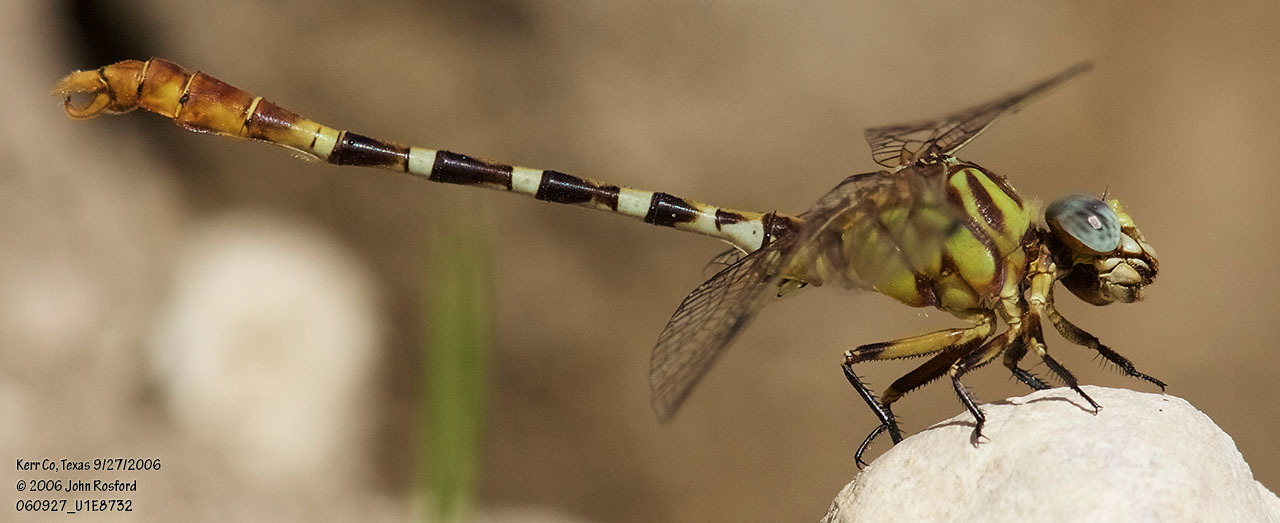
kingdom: Animalia
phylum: Arthropoda
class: Insecta
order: Odonata
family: Gomphidae
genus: Erpetogomphus
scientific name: Erpetogomphus designatus
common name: Eastern ringtail
